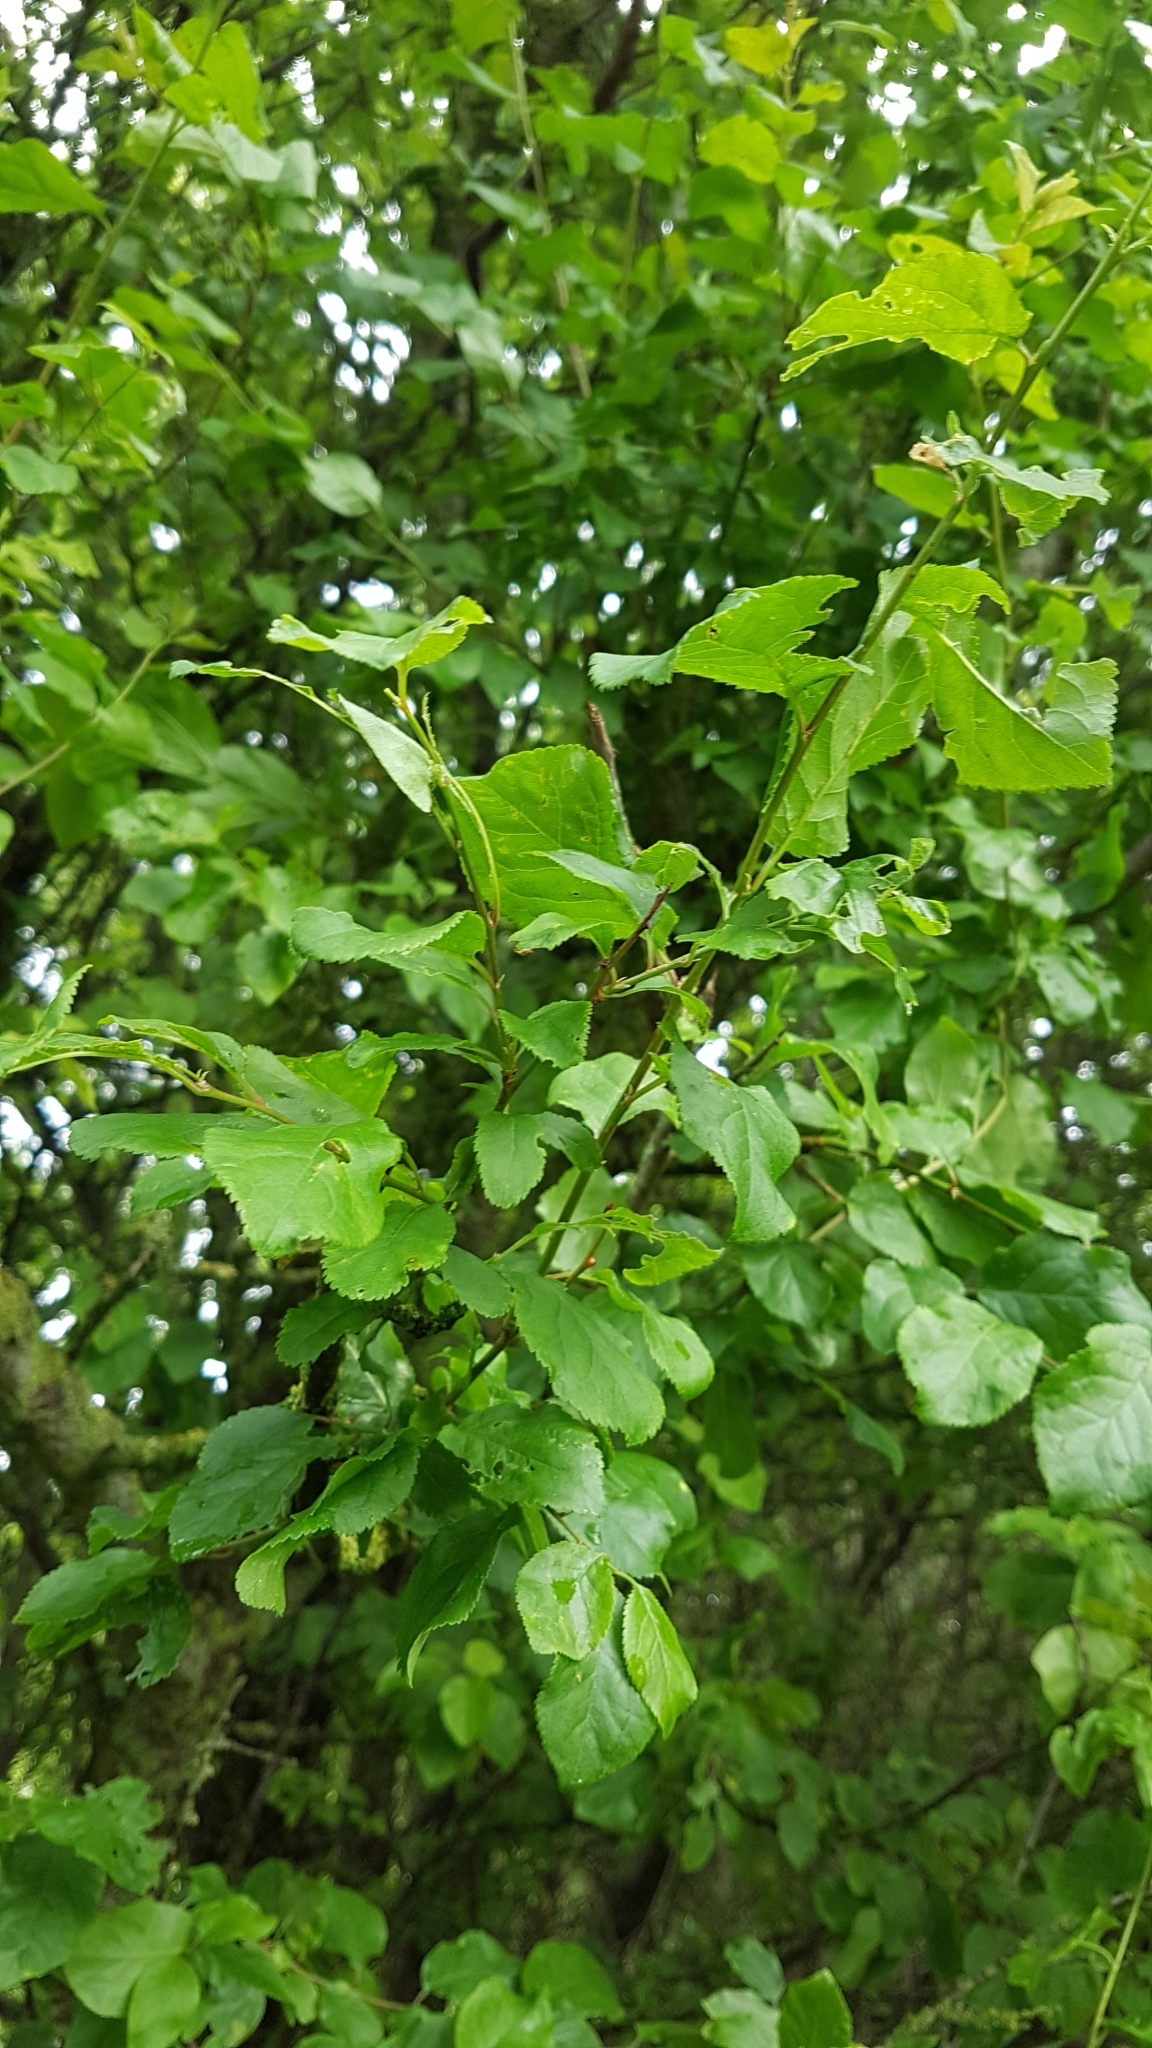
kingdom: Plantae
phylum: Tracheophyta
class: Magnoliopsida
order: Rosales
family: Rosaceae
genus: Prunus
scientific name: Prunus cerasifera
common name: Cherry plum
